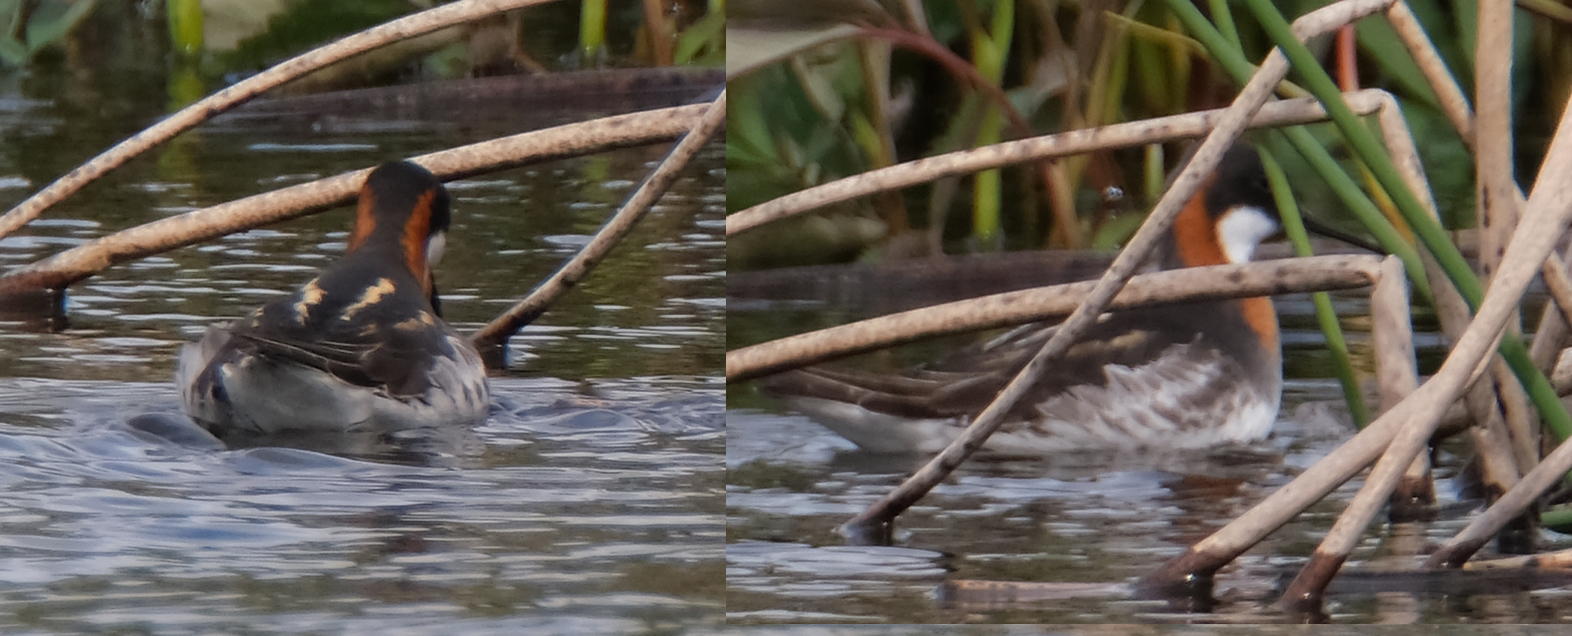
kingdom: Animalia
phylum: Chordata
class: Aves
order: Charadriiformes
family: Scolopacidae
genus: Phalaropus
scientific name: Phalaropus lobatus
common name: Red-necked phalarope
